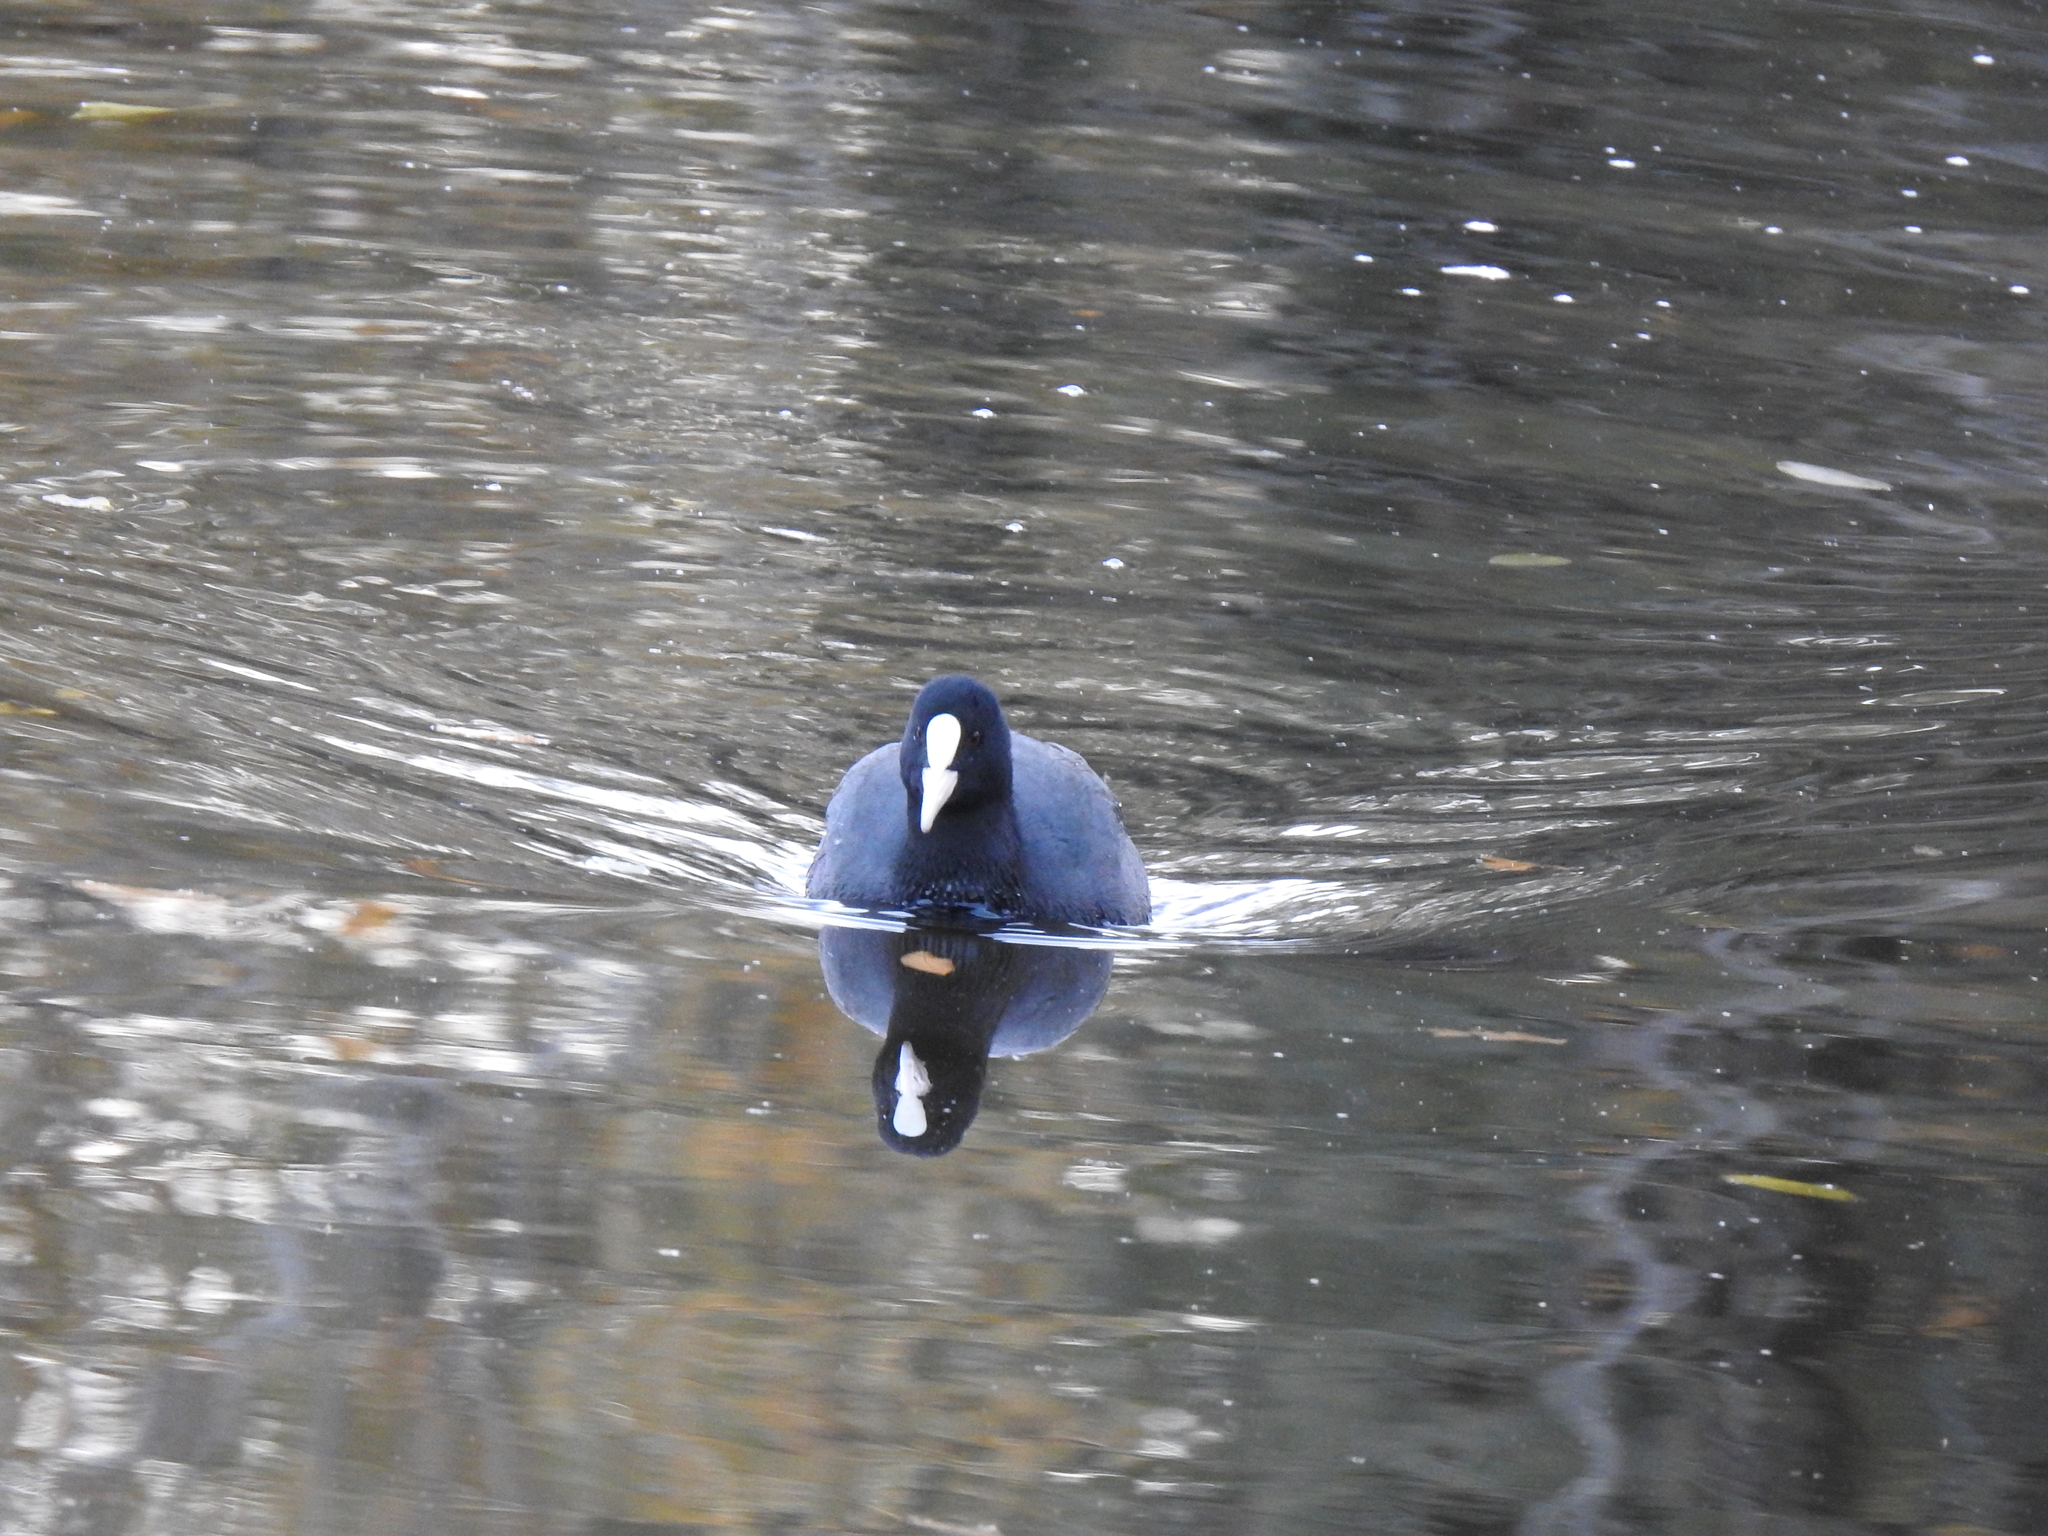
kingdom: Animalia
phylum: Chordata
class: Aves
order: Gruiformes
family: Rallidae
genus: Fulica
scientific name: Fulica atra
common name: Eurasian coot
